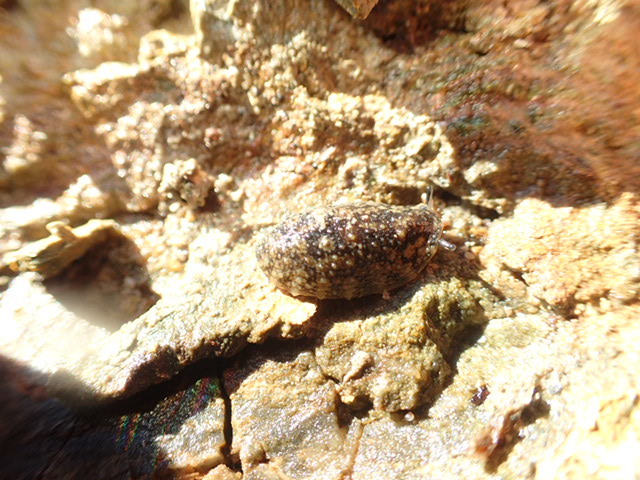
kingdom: Animalia
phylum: Mollusca
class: Gastropoda
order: Systellommatophora
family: Onchidiidae
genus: Onchidella
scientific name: Onchidella nigricans
